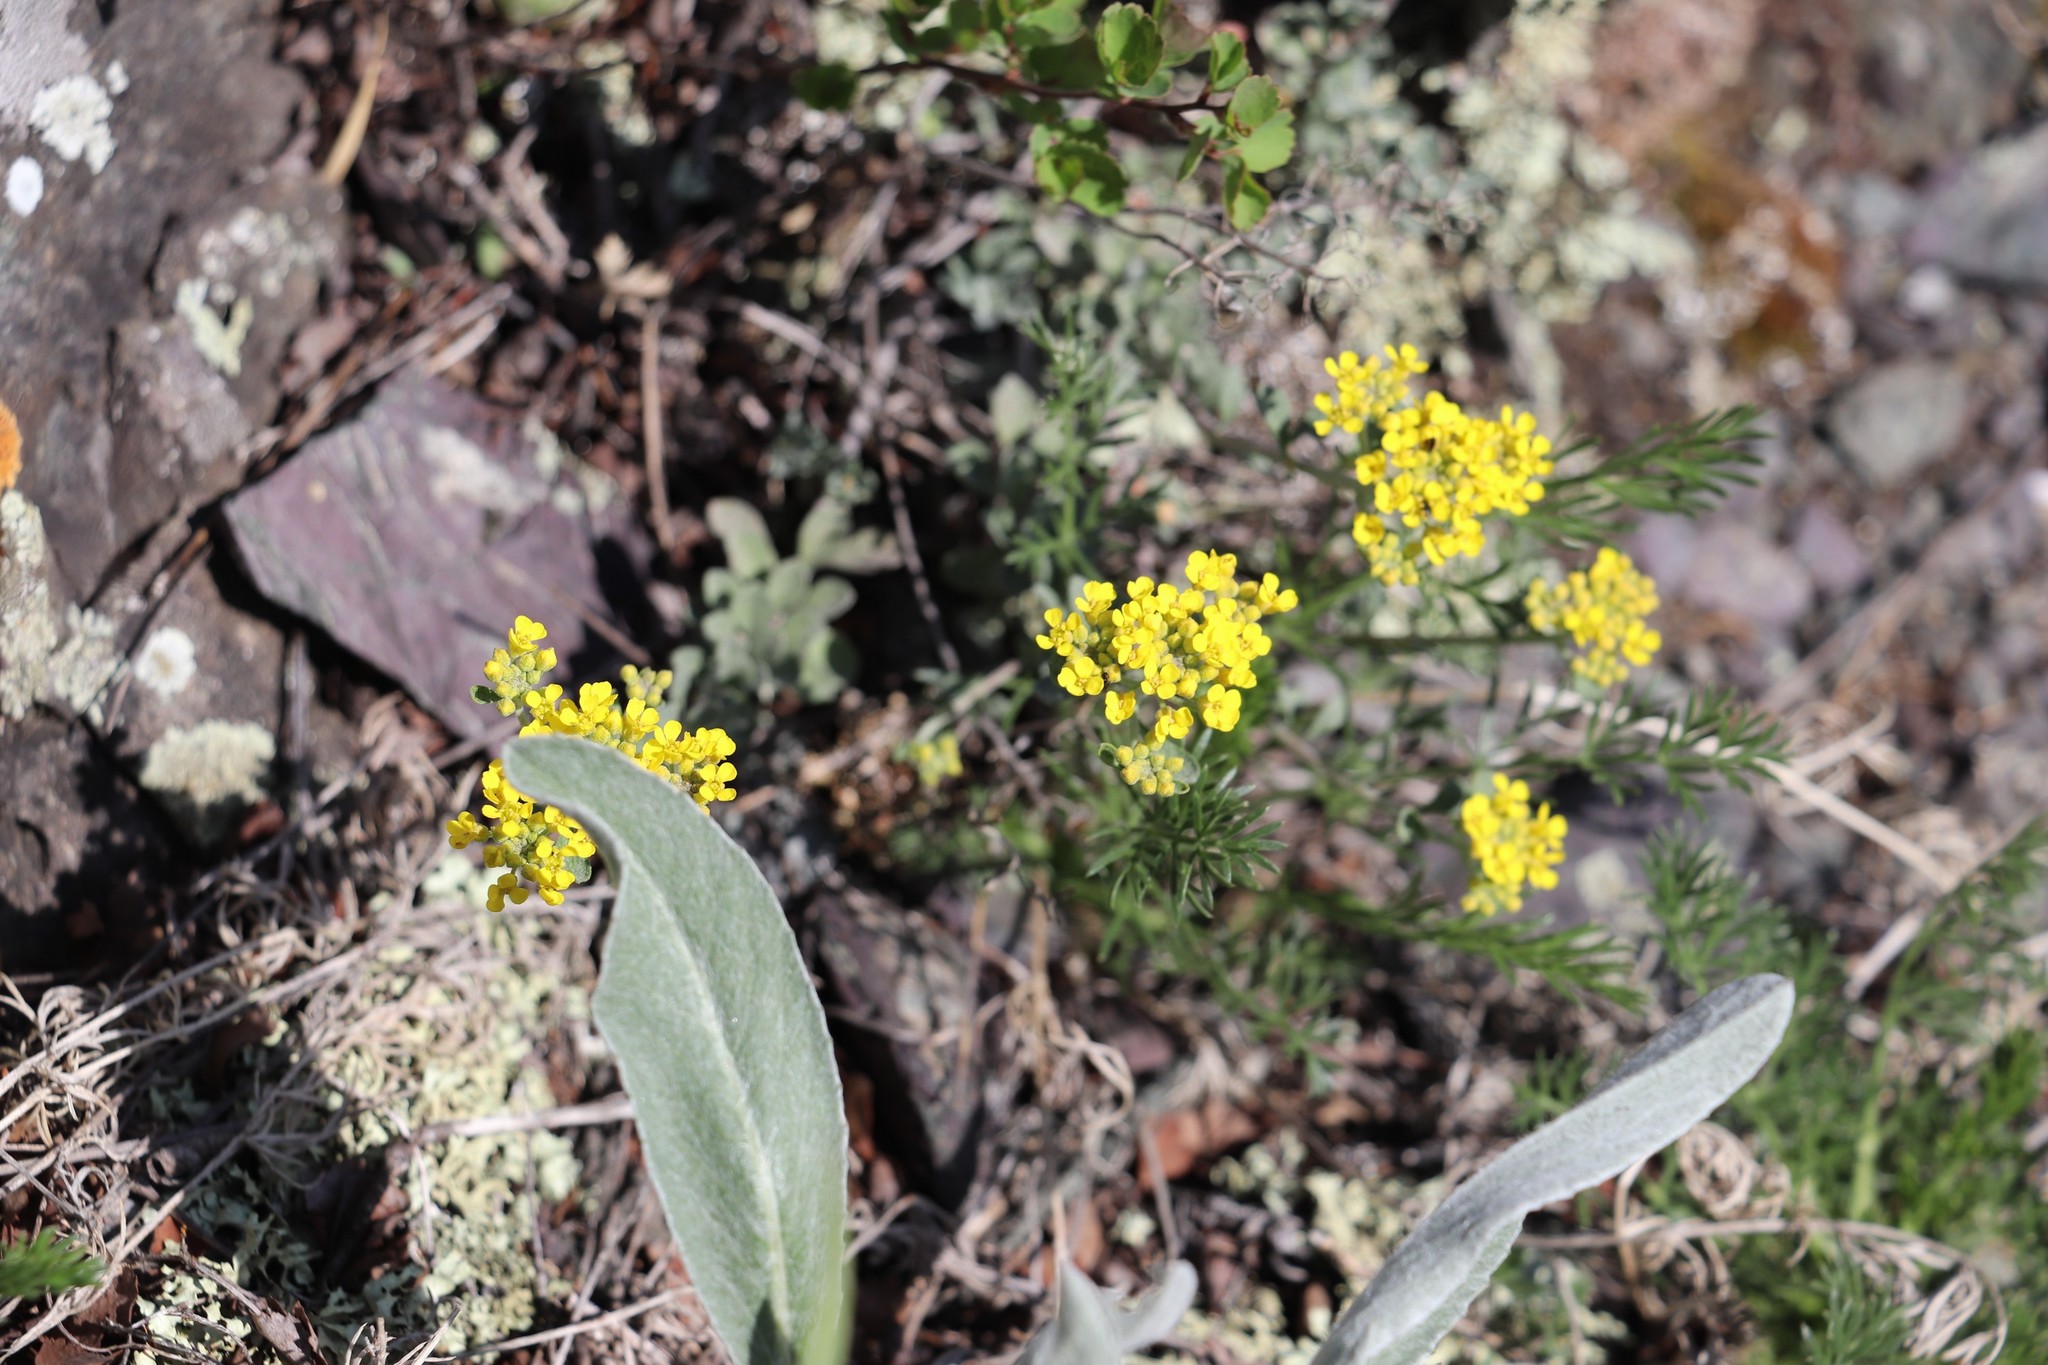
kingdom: Plantae
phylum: Tracheophyta
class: Magnoliopsida
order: Brassicales
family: Brassicaceae
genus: Odontarrhena
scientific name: Odontarrhena obovata
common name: American alyssum
